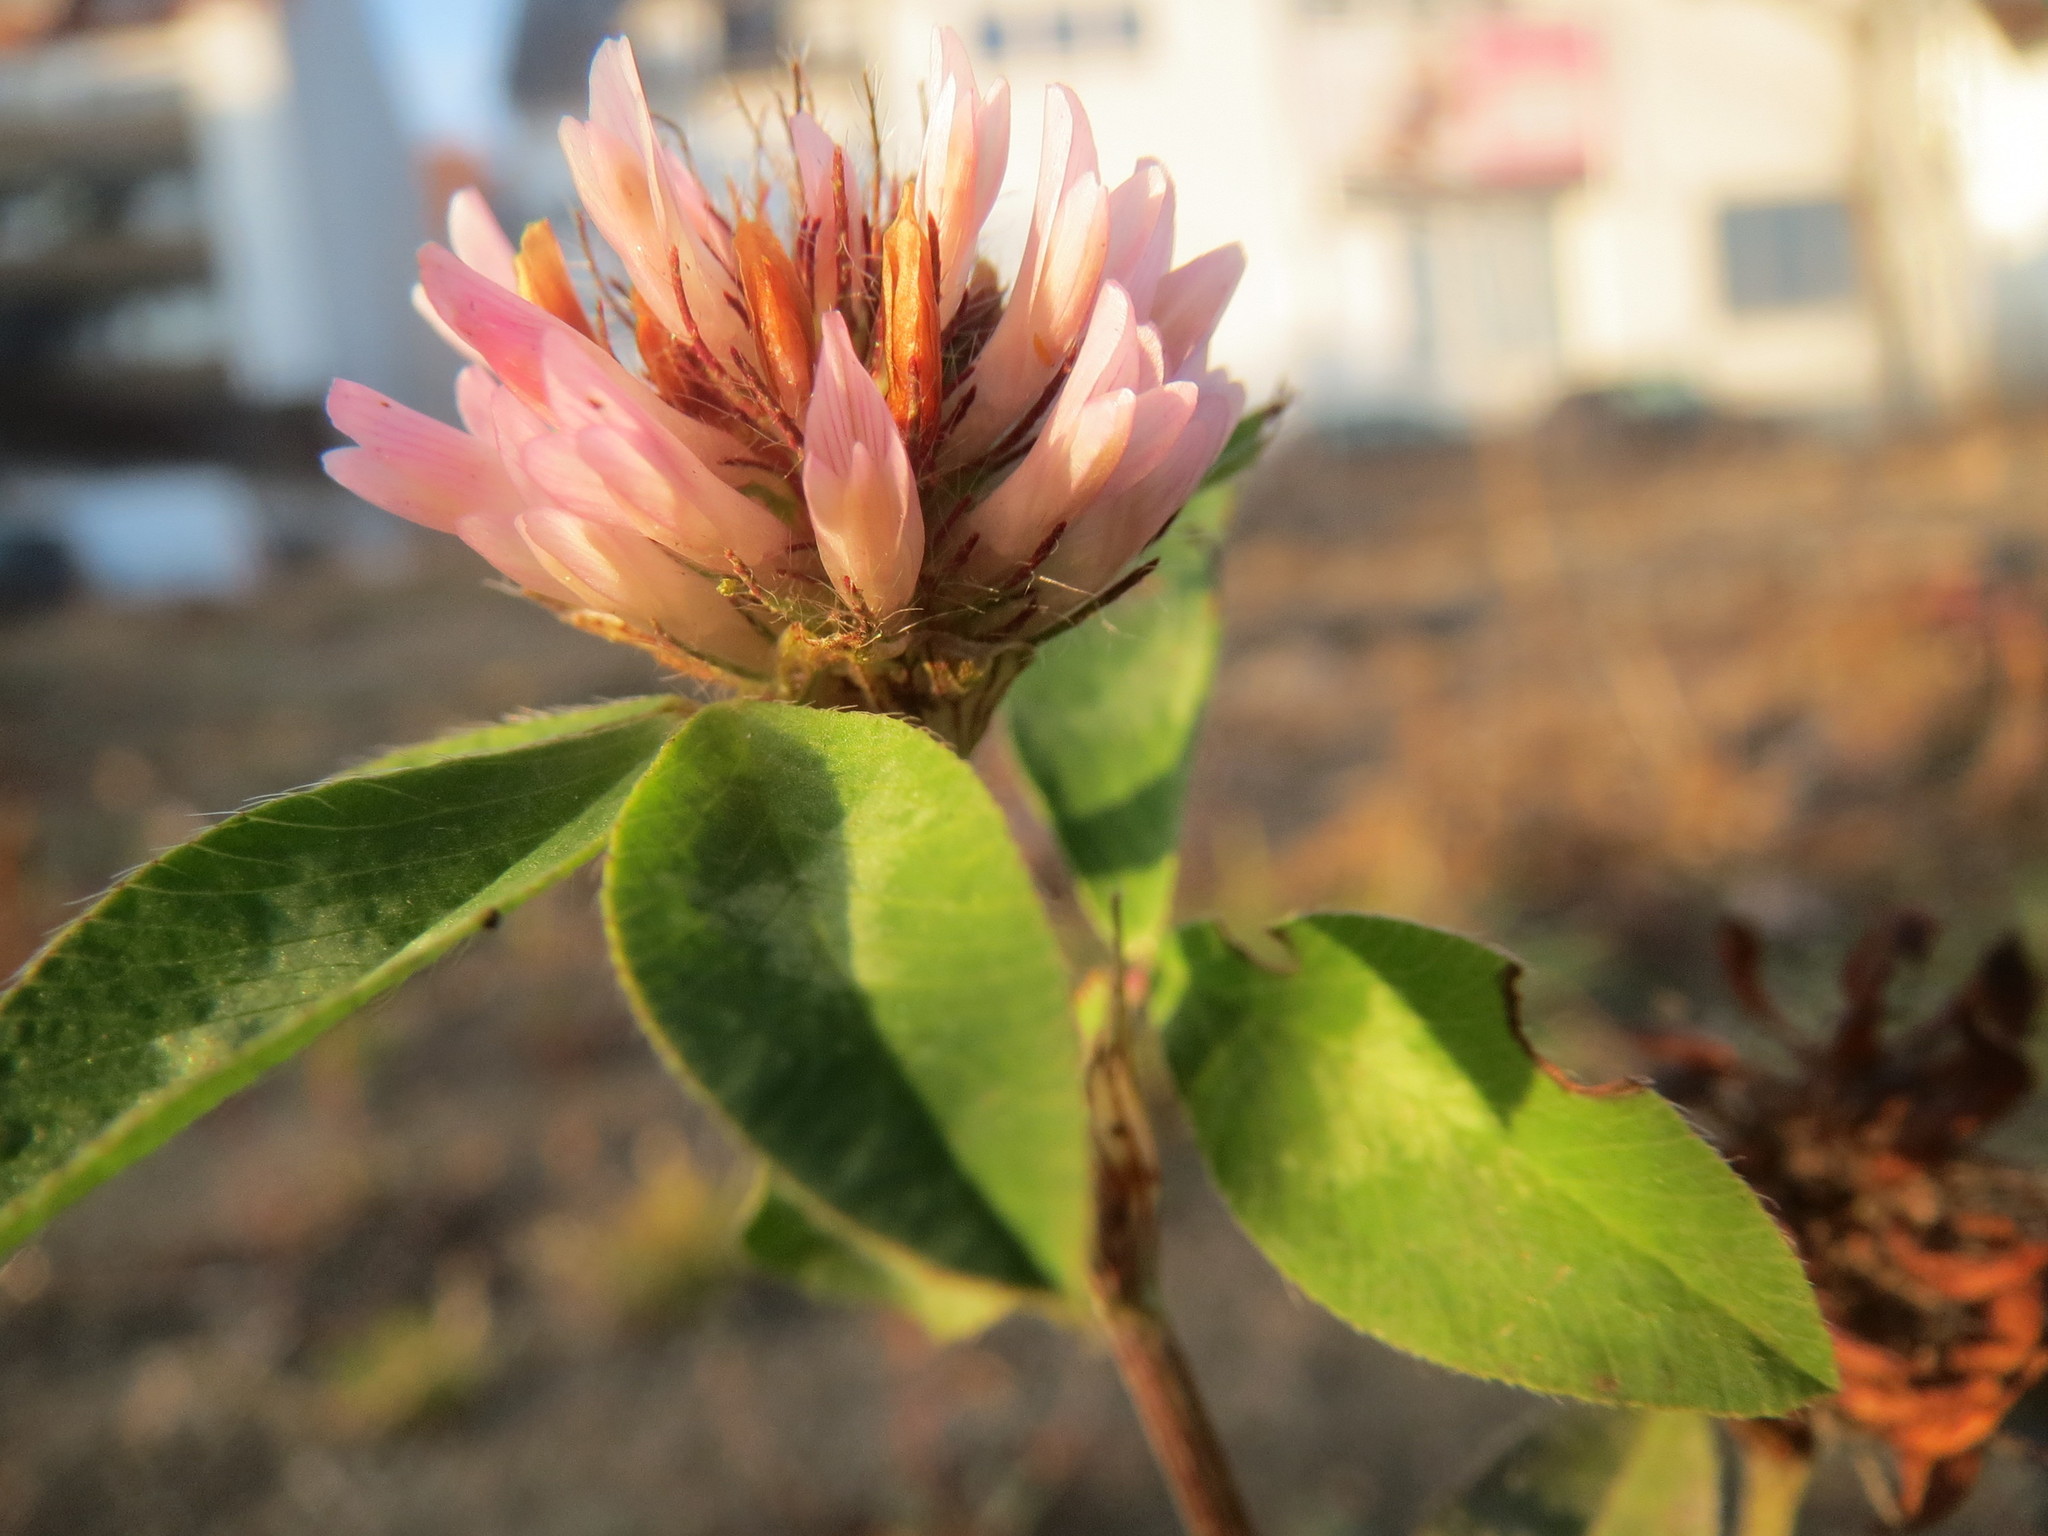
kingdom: Plantae
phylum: Tracheophyta
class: Magnoliopsida
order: Fabales
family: Fabaceae
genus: Trifolium
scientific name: Trifolium pratense
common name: Red clover
